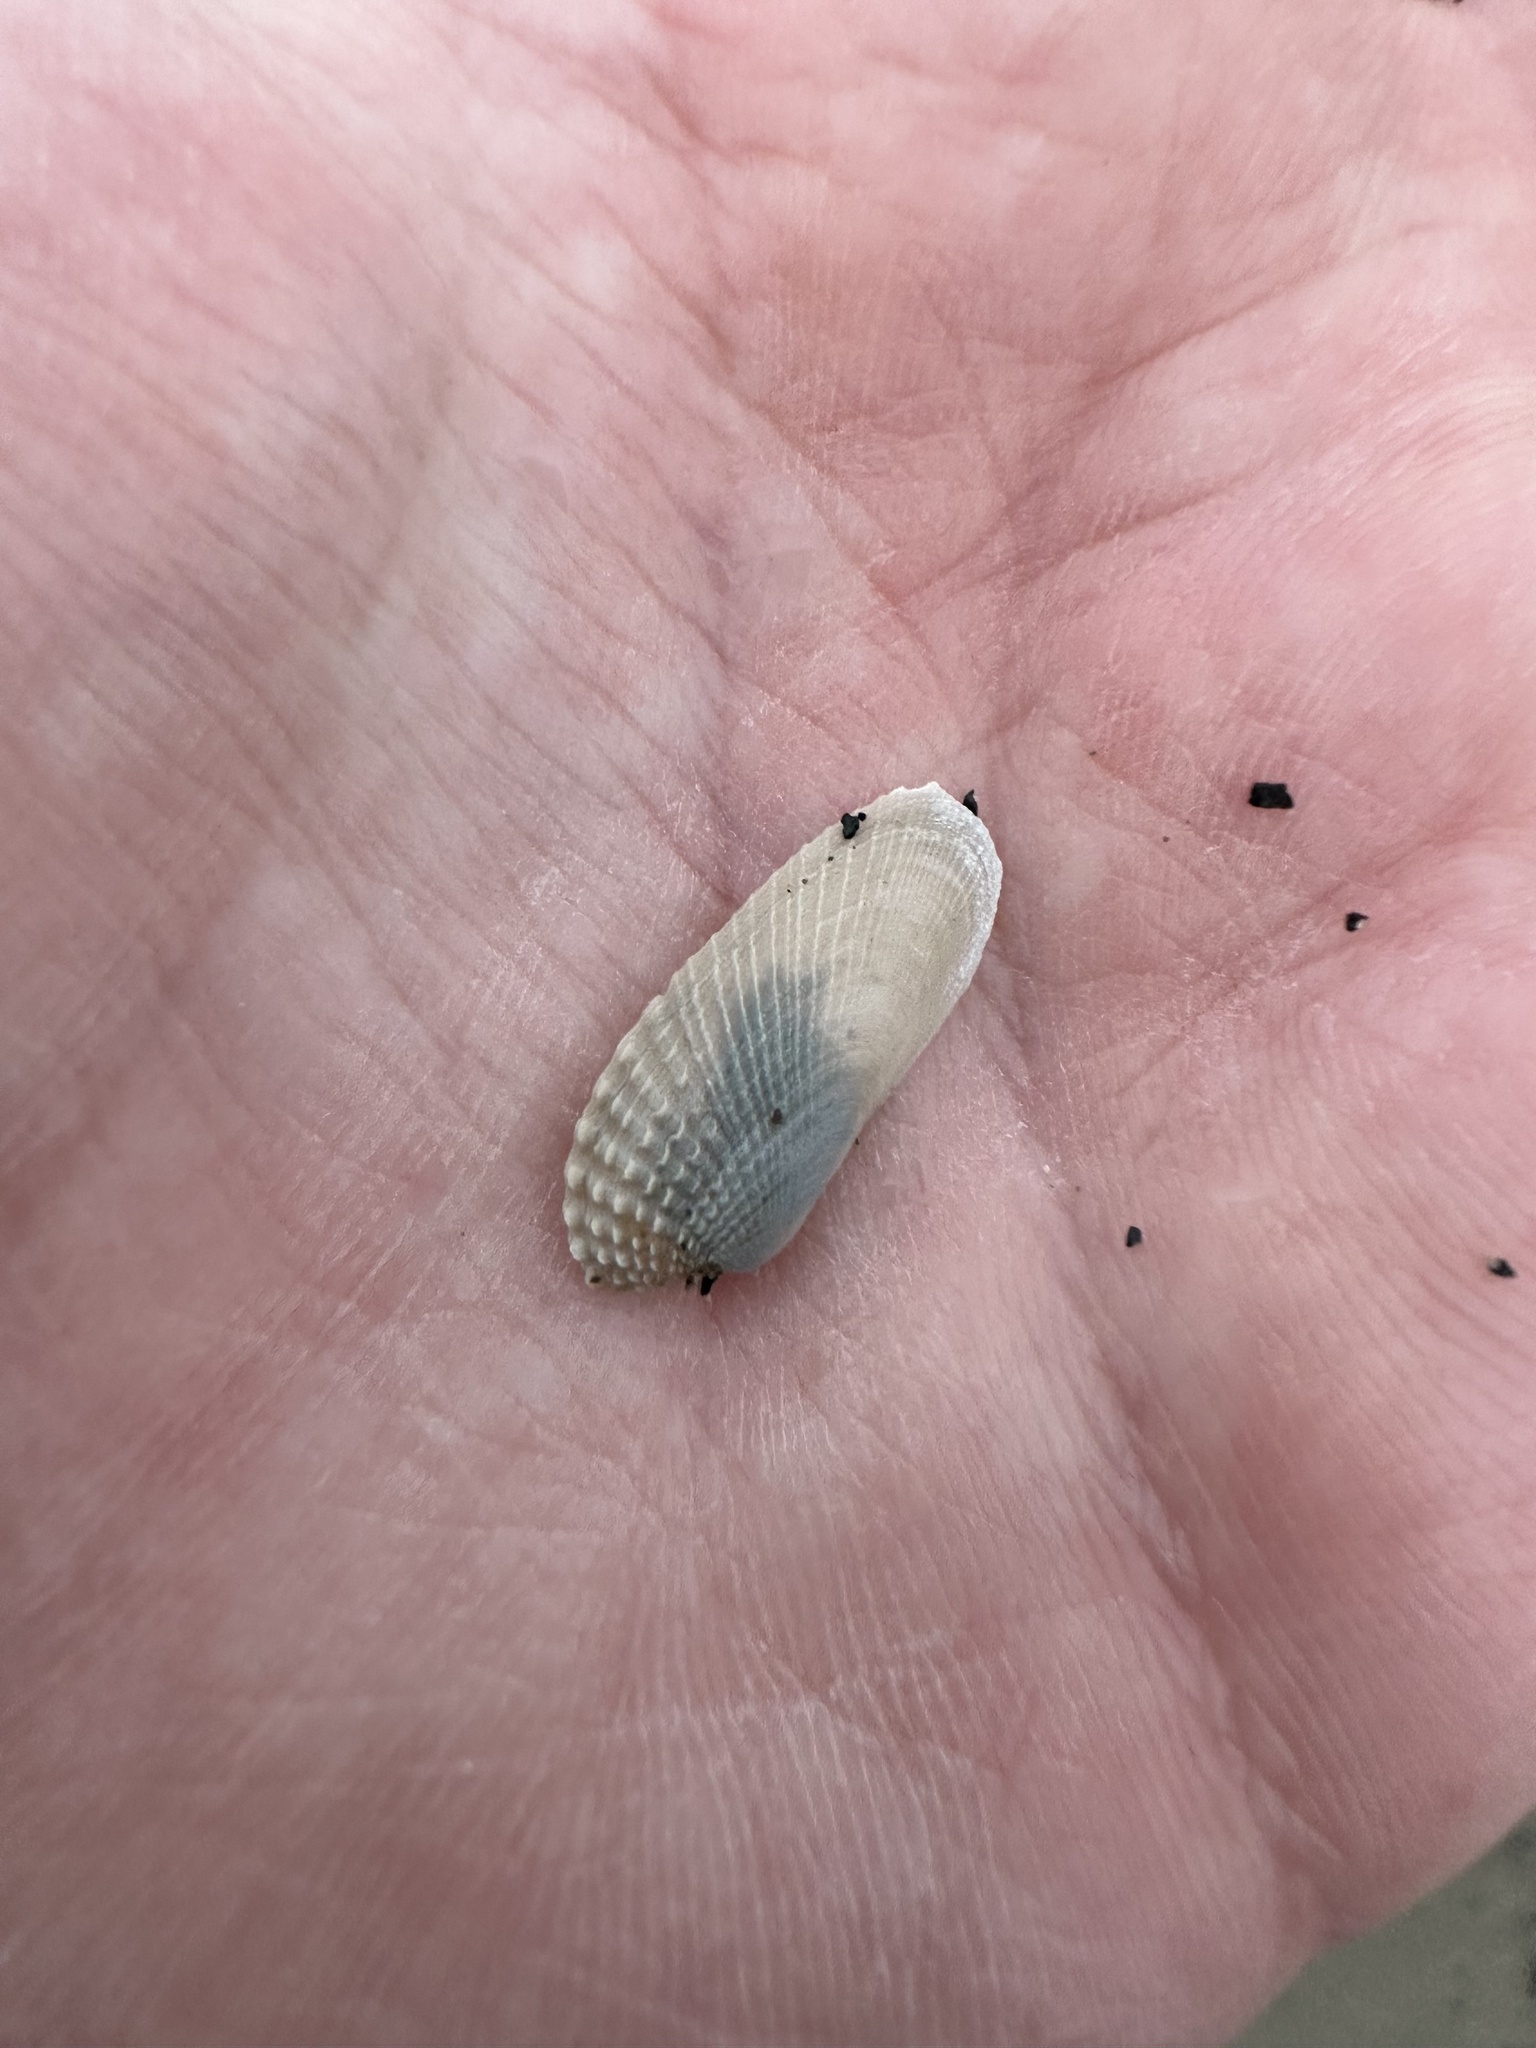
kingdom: Animalia
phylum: Mollusca
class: Bivalvia
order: Venerida
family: Veneridae
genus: Petricolaria
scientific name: Petricolaria pholadiformis
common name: American piddock
